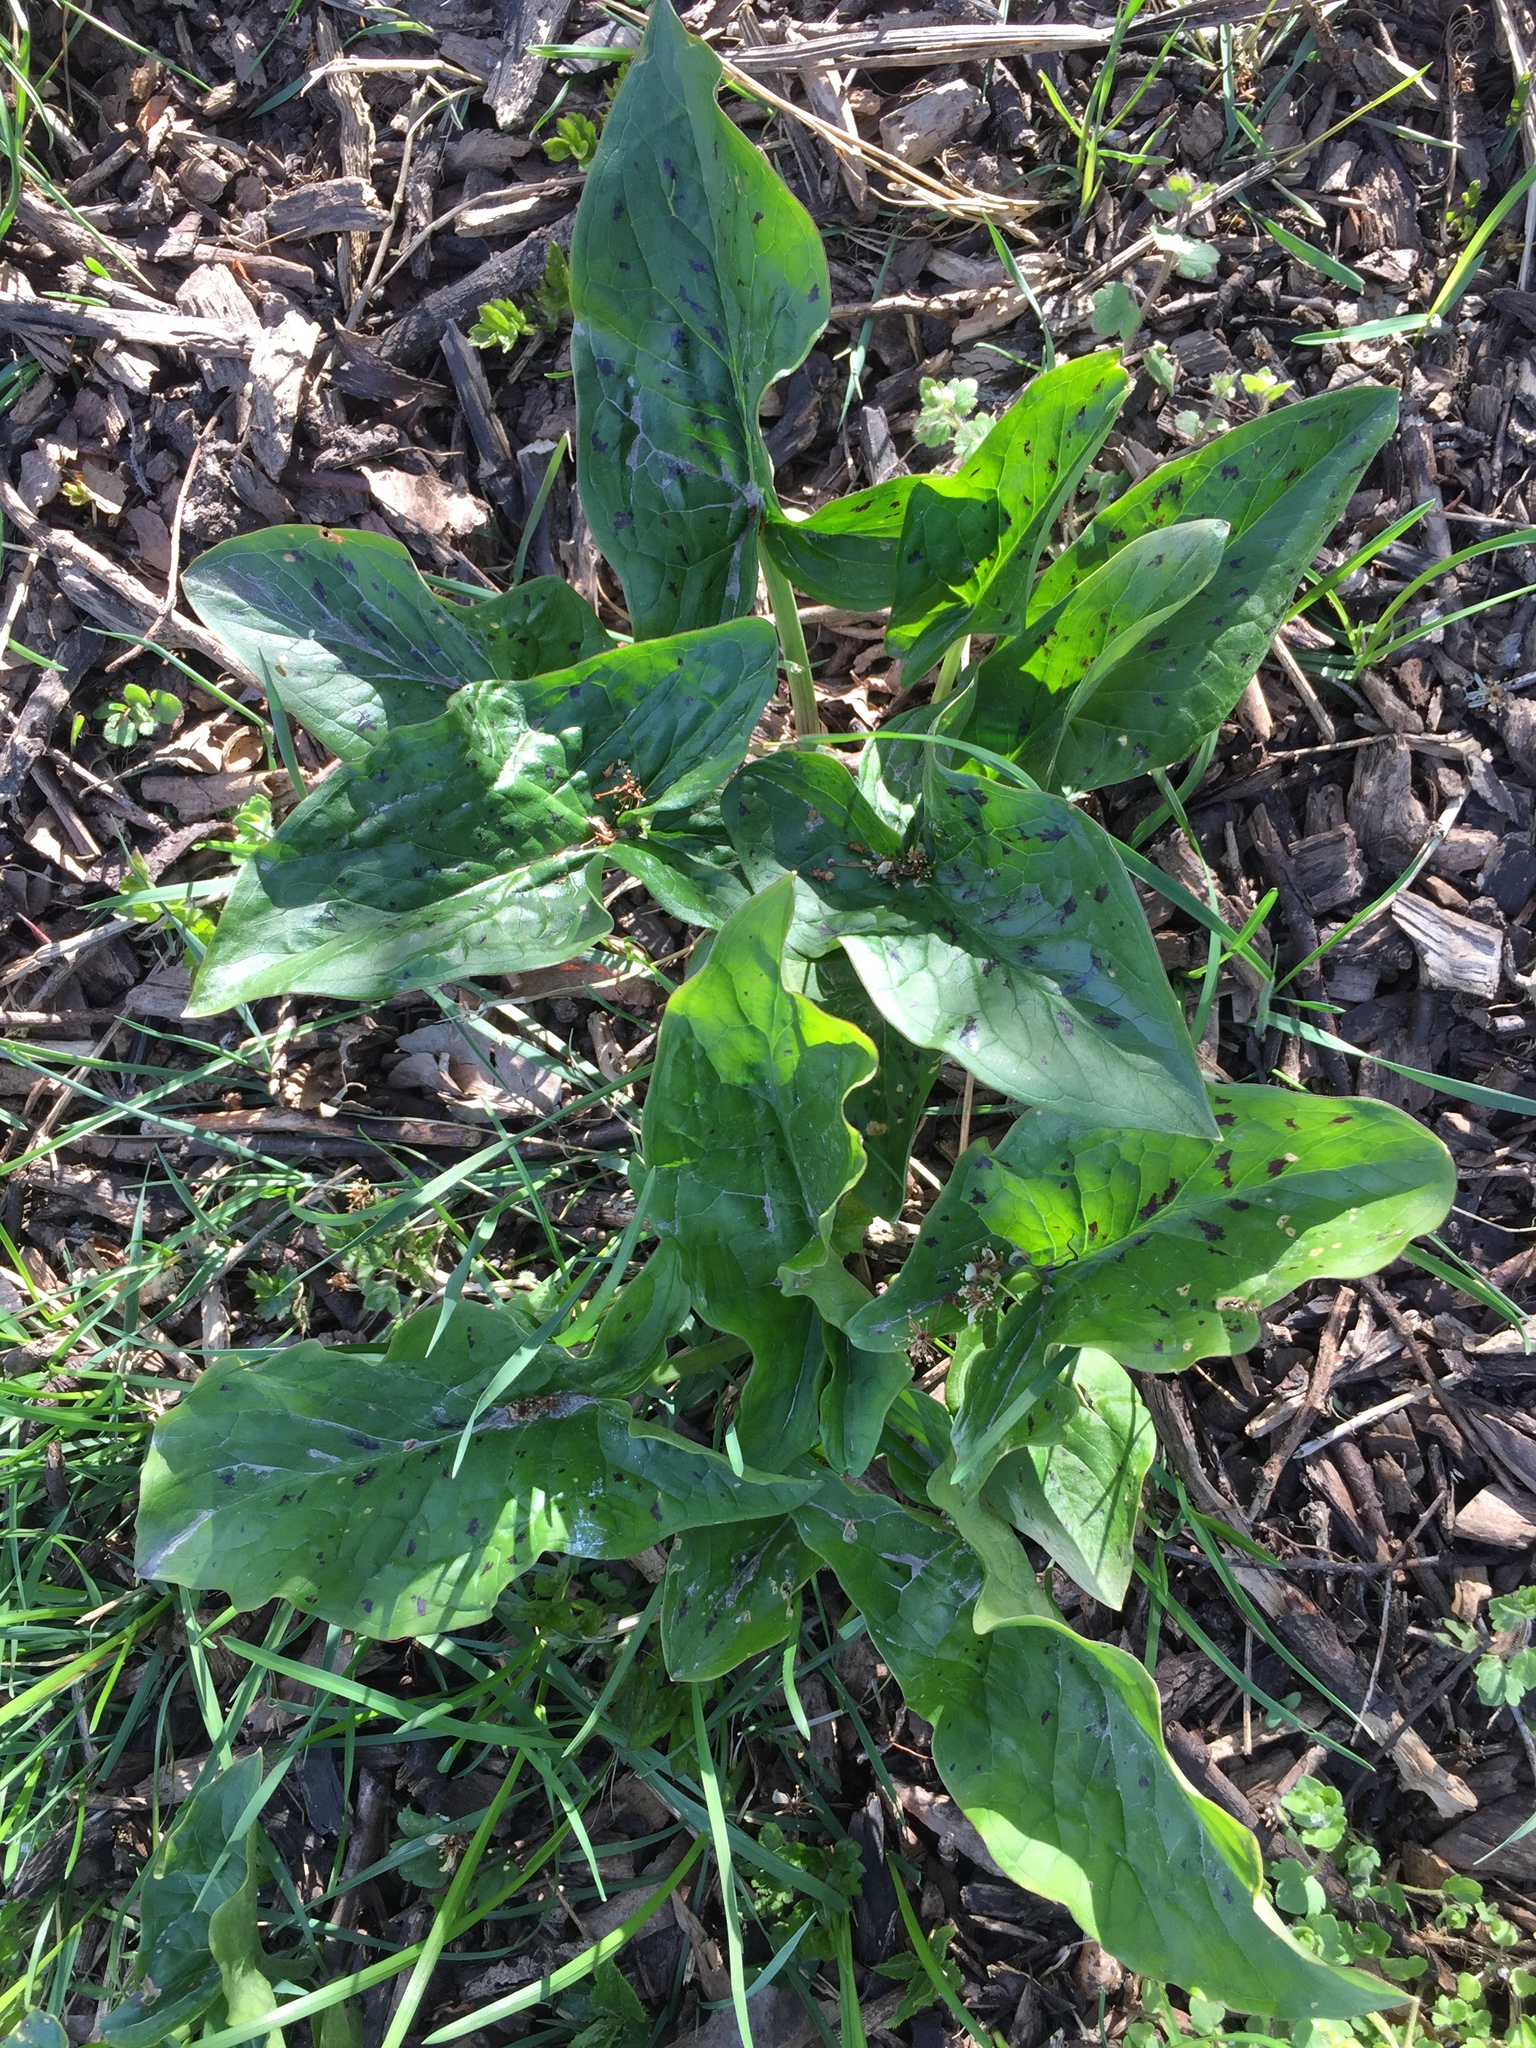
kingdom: Plantae
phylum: Tracheophyta
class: Liliopsida
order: Alismatales
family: Araceae
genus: Arum
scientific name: Arum maculatum
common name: Lords-and-ladies
